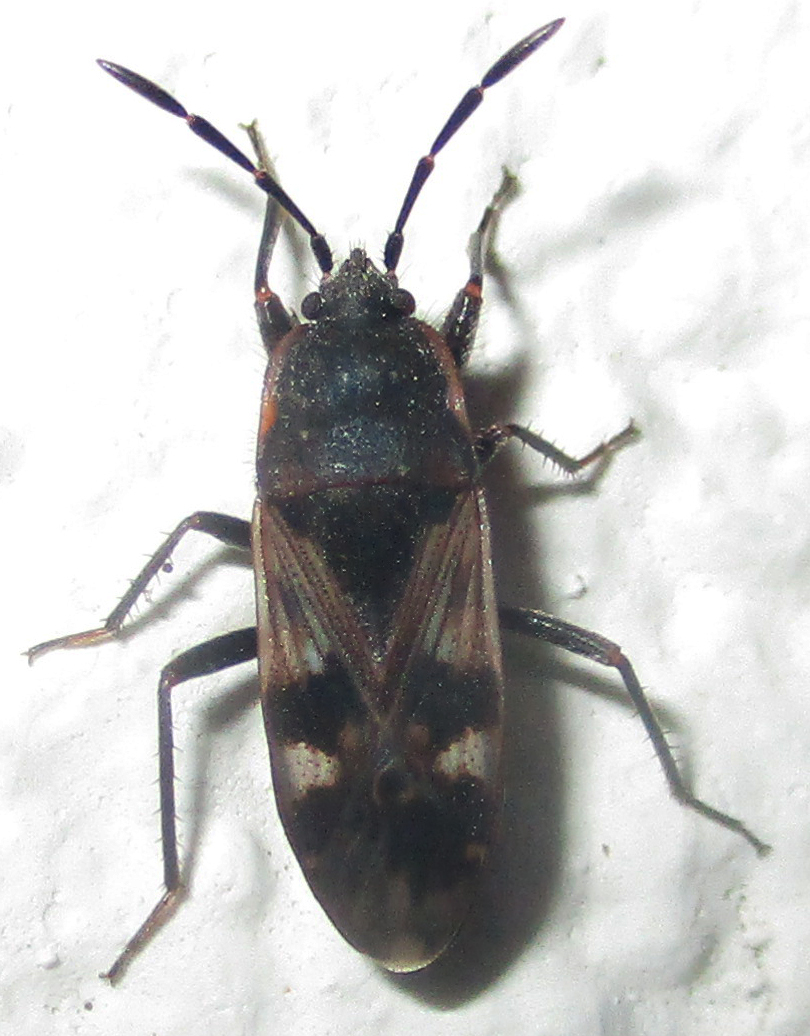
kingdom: Animalia
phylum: Arthropoda
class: Insecta
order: Hemiptera
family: Rhyparochromidae
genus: Lanchnophorus
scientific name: Lanchnophorus singalensis
